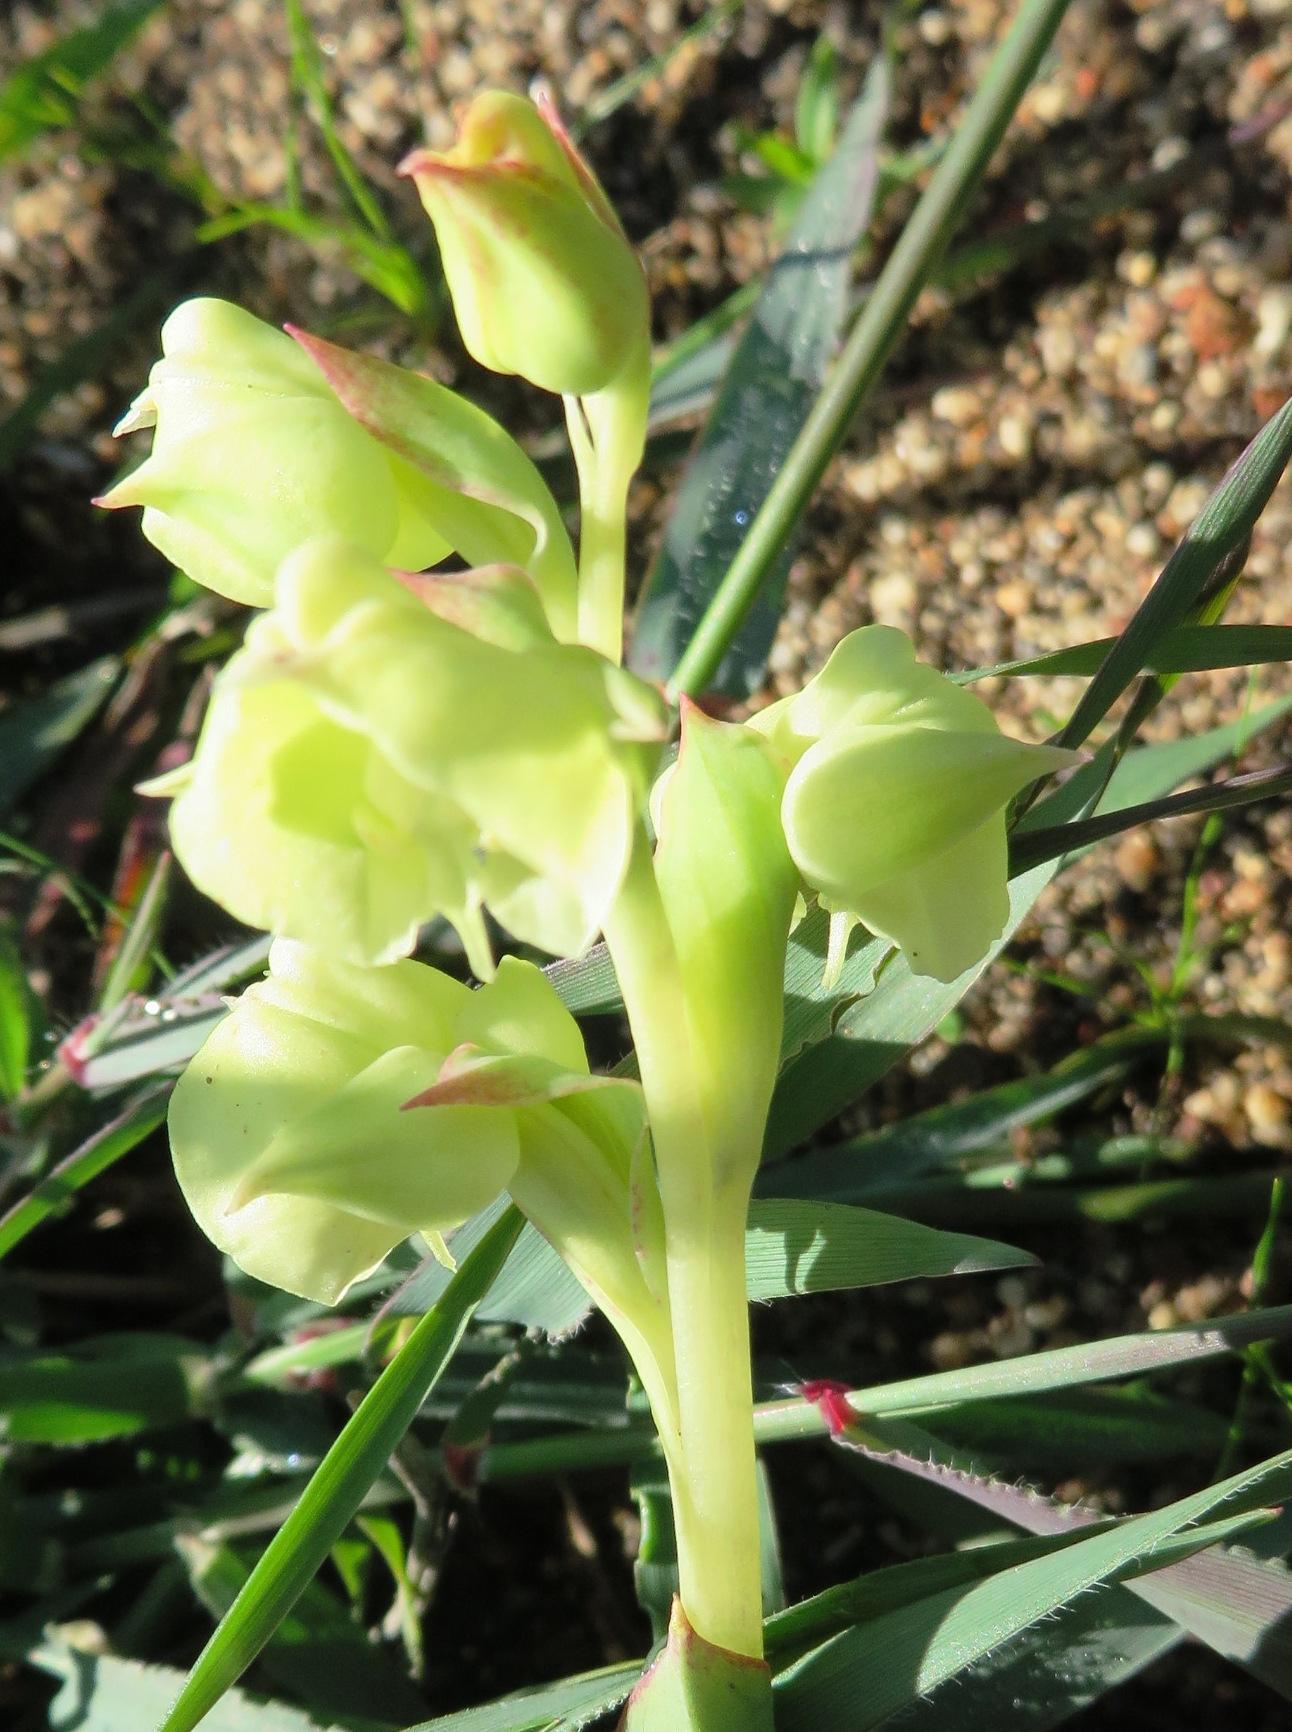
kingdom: Plantae
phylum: Tracheophyta
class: Liliopsida
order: Asparagales
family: Orchidaceae
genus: Pterygodium
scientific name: Pterygodium catholicum
